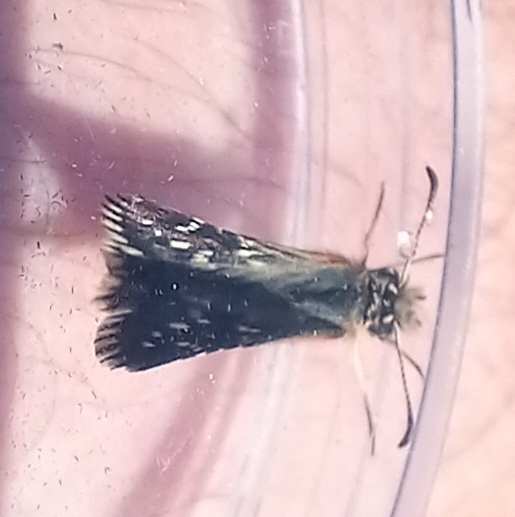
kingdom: Animalia
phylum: Arthropoda
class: Insecta
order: Lepidoptera
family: Hesperiidae
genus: Pyrgus
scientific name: Pyrgus malvoides
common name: Southern grizzled skipper
